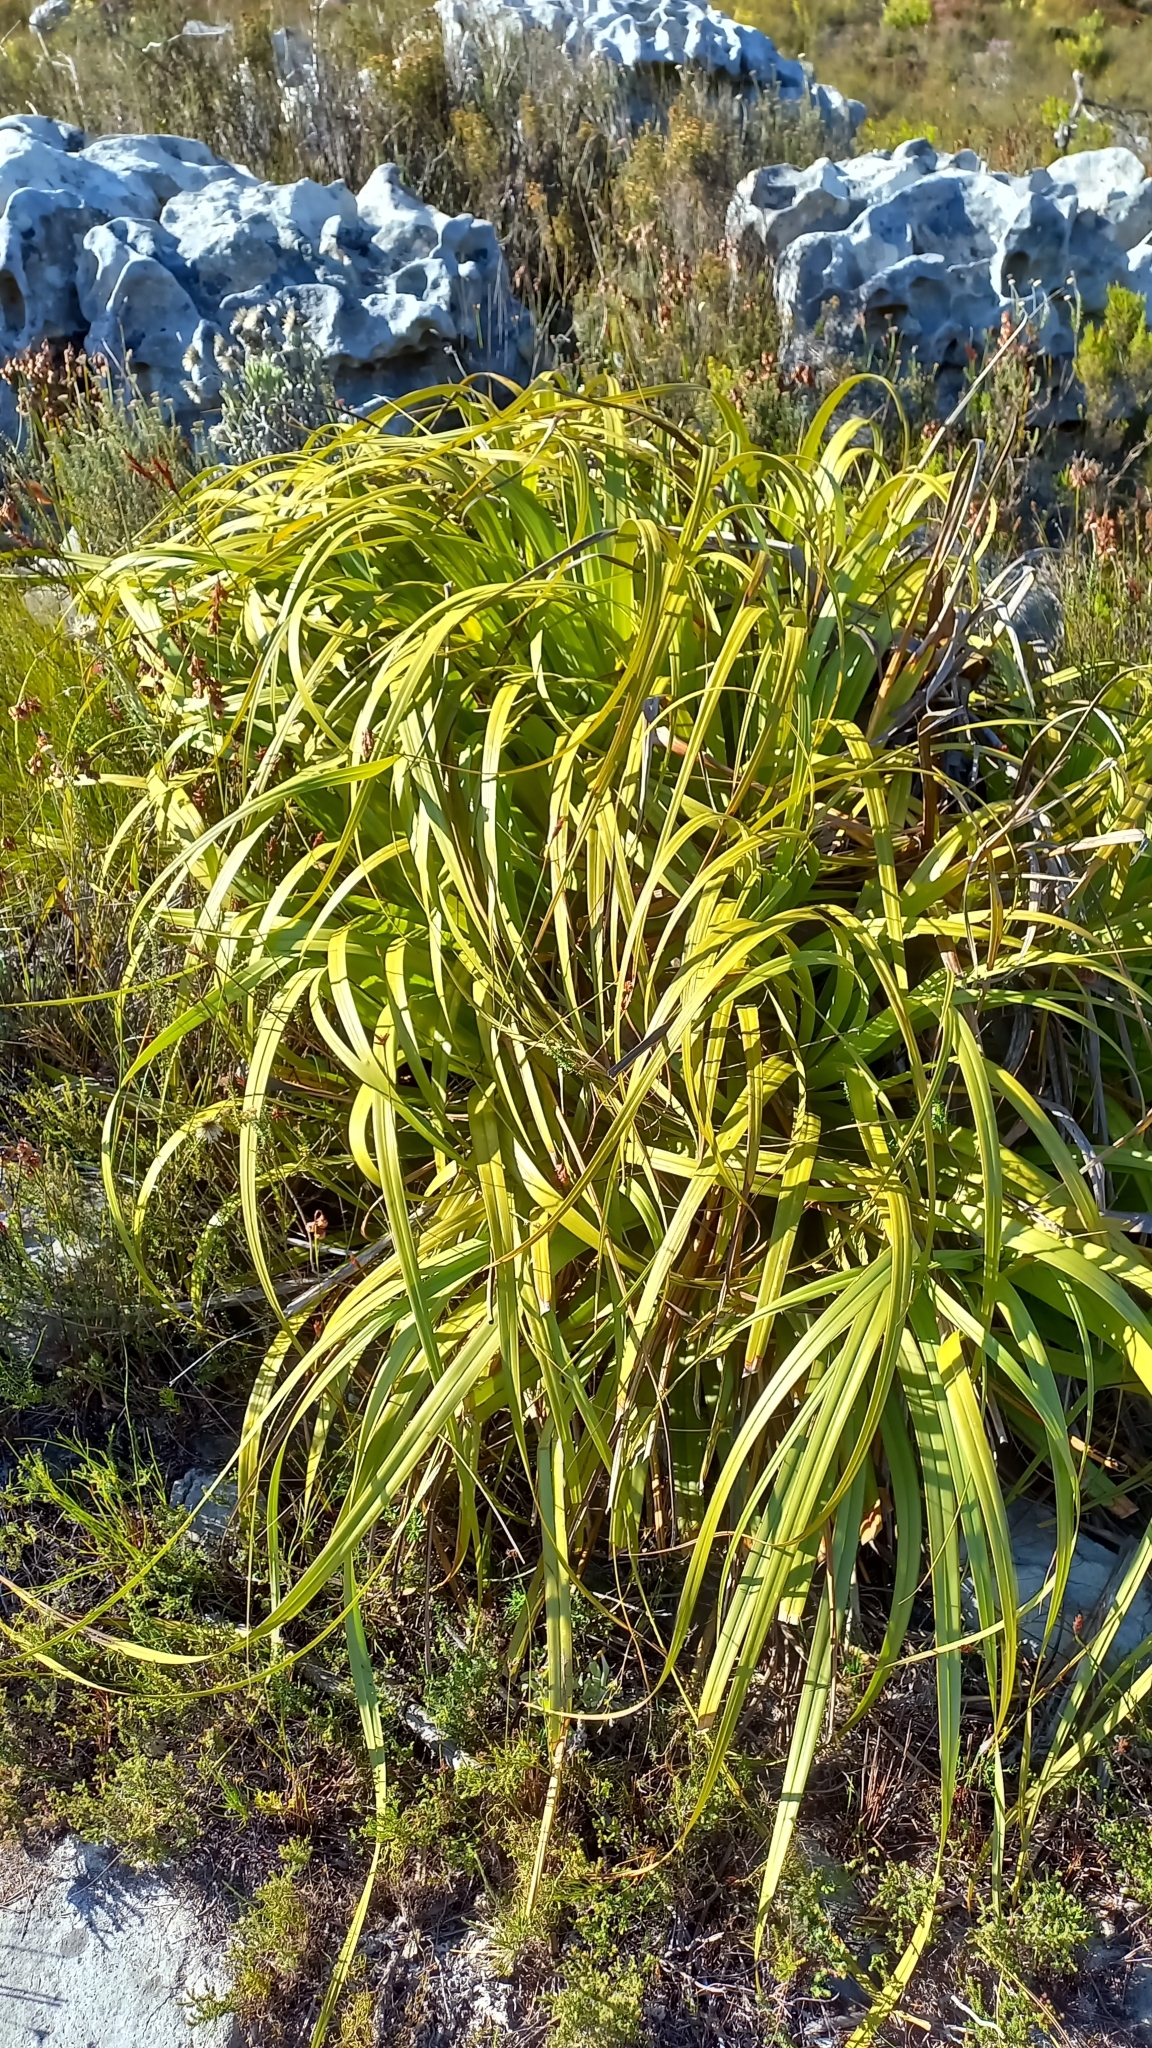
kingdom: Plantae
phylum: Tracheophyta
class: Liliopsida
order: Poales
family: Cyperaceae
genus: Tetraria
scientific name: Tetraria thermalis
